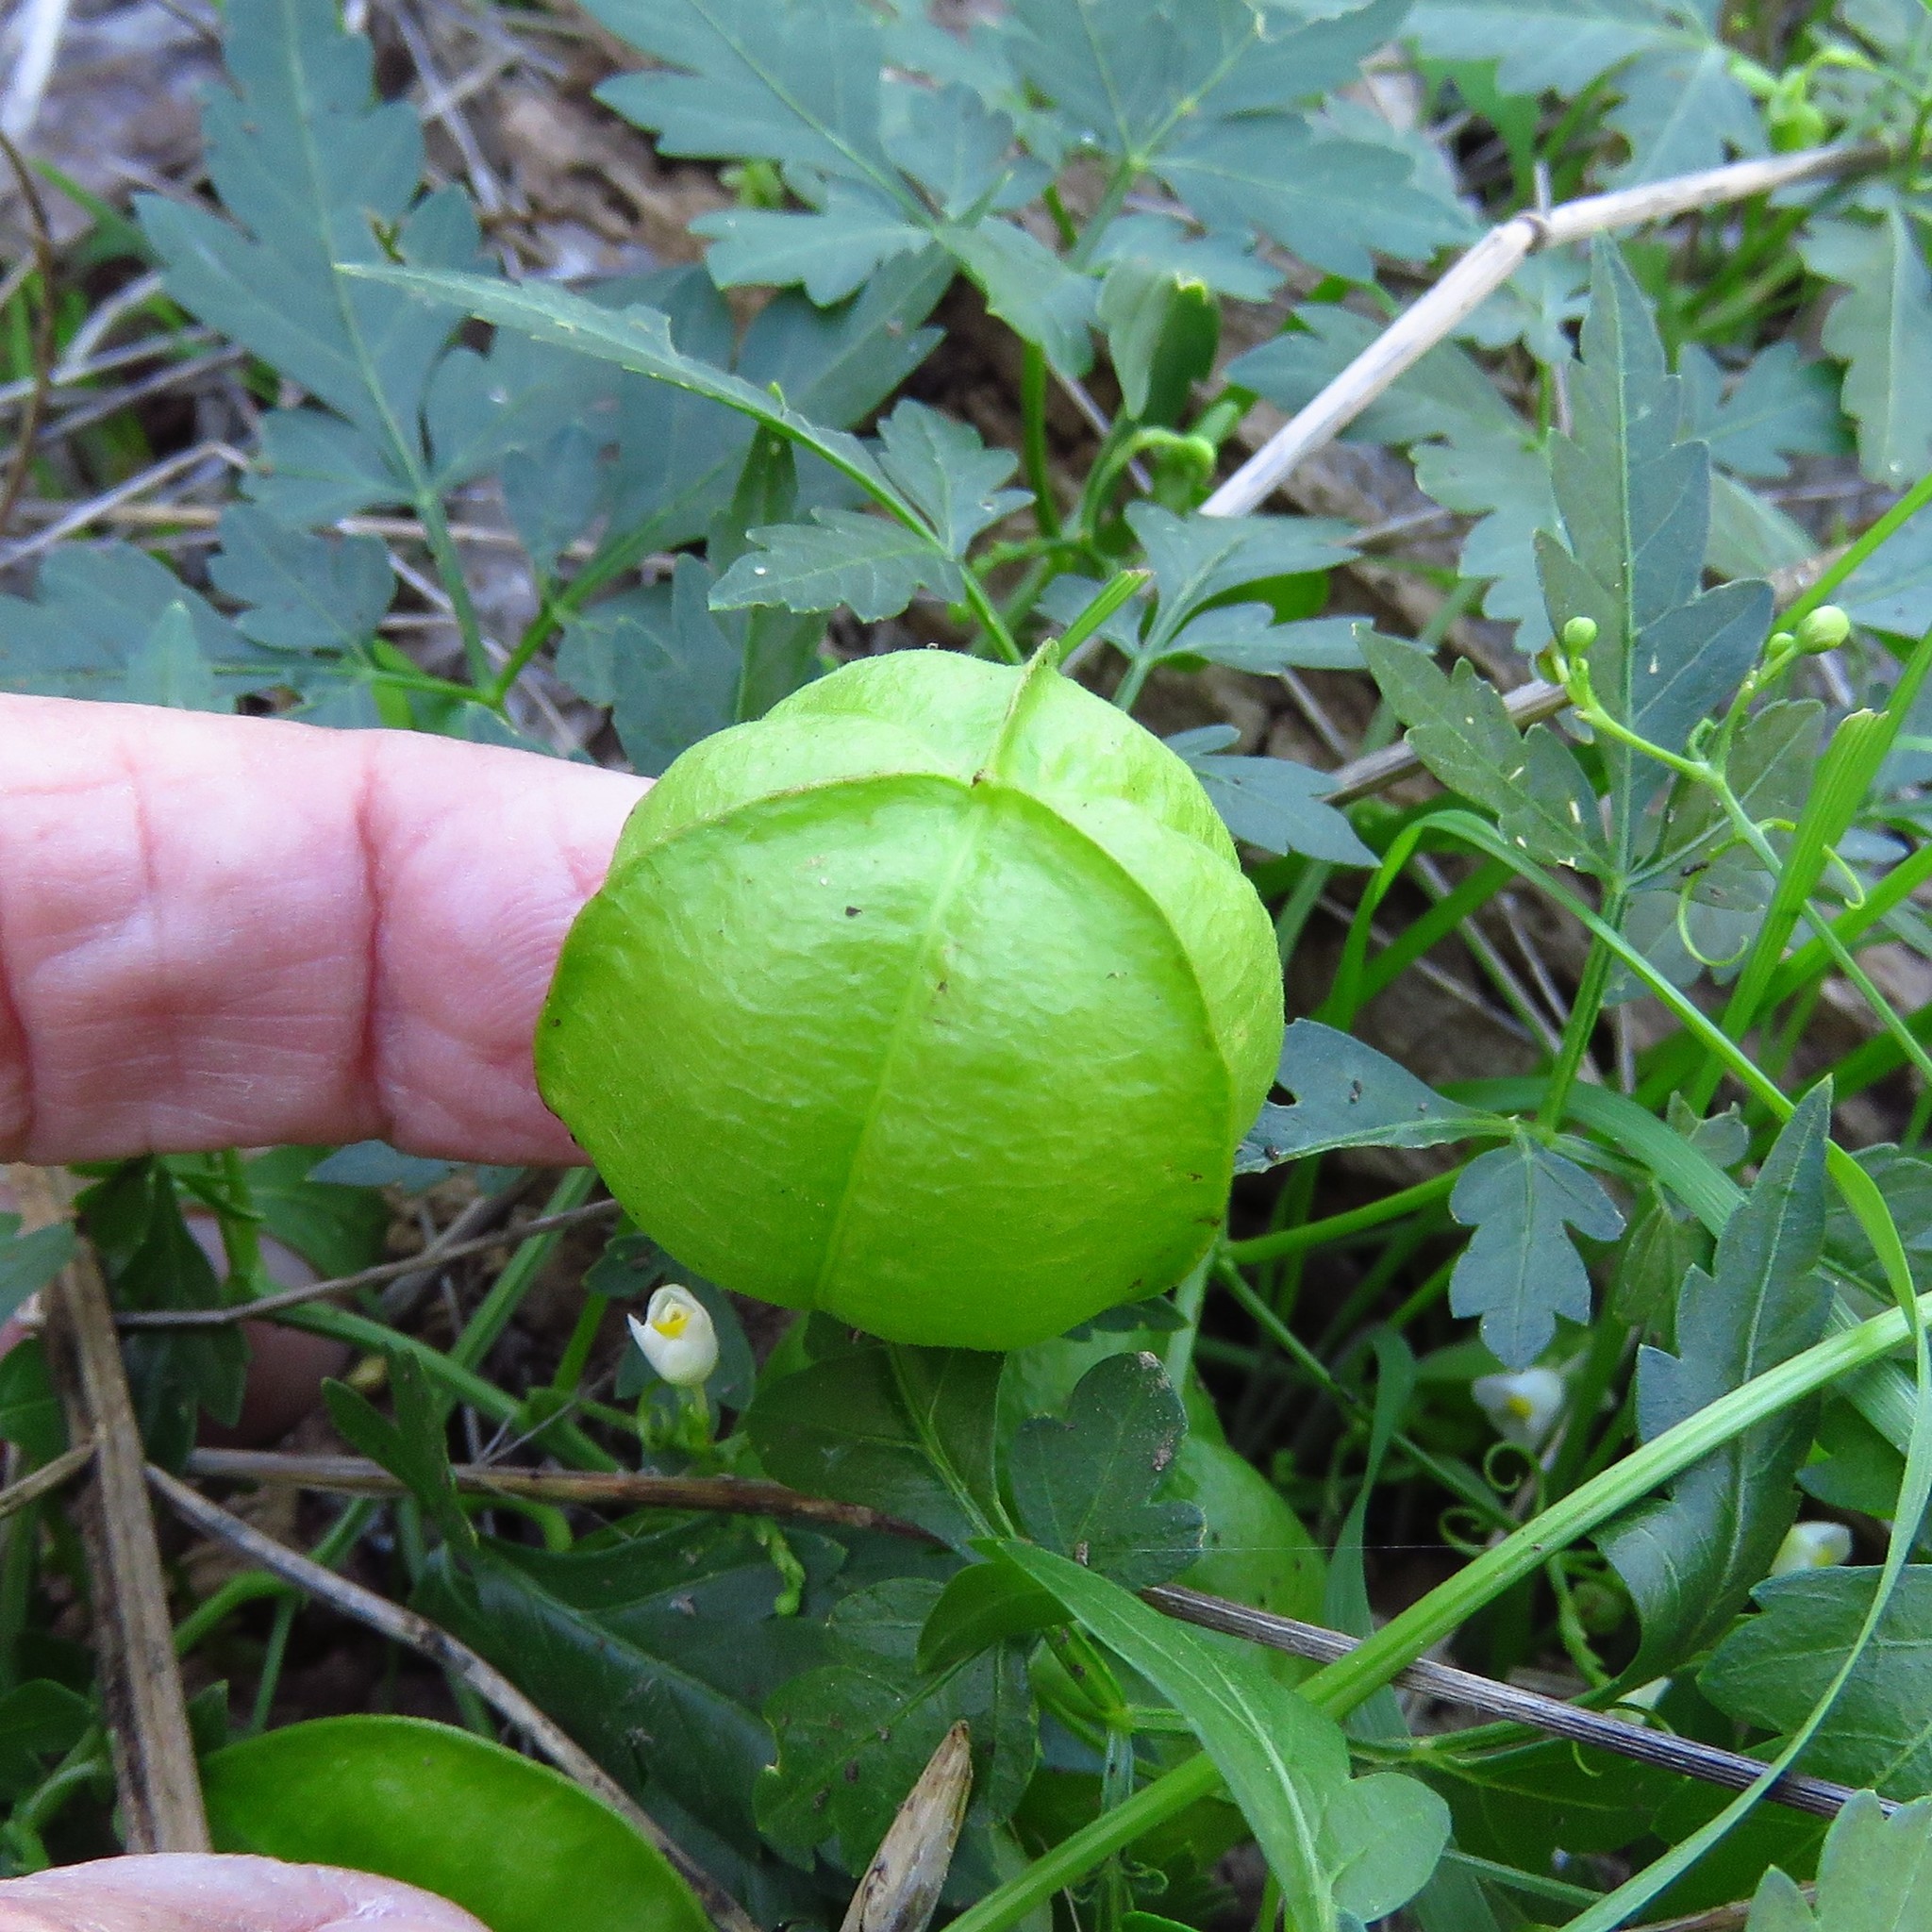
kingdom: Plantae
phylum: Tracheophyta
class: Magnoliopsida
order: Sapindales
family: Sapindaceae
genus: Cardiospermum
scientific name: Cardiospermum halicacabum
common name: Balloon vine
